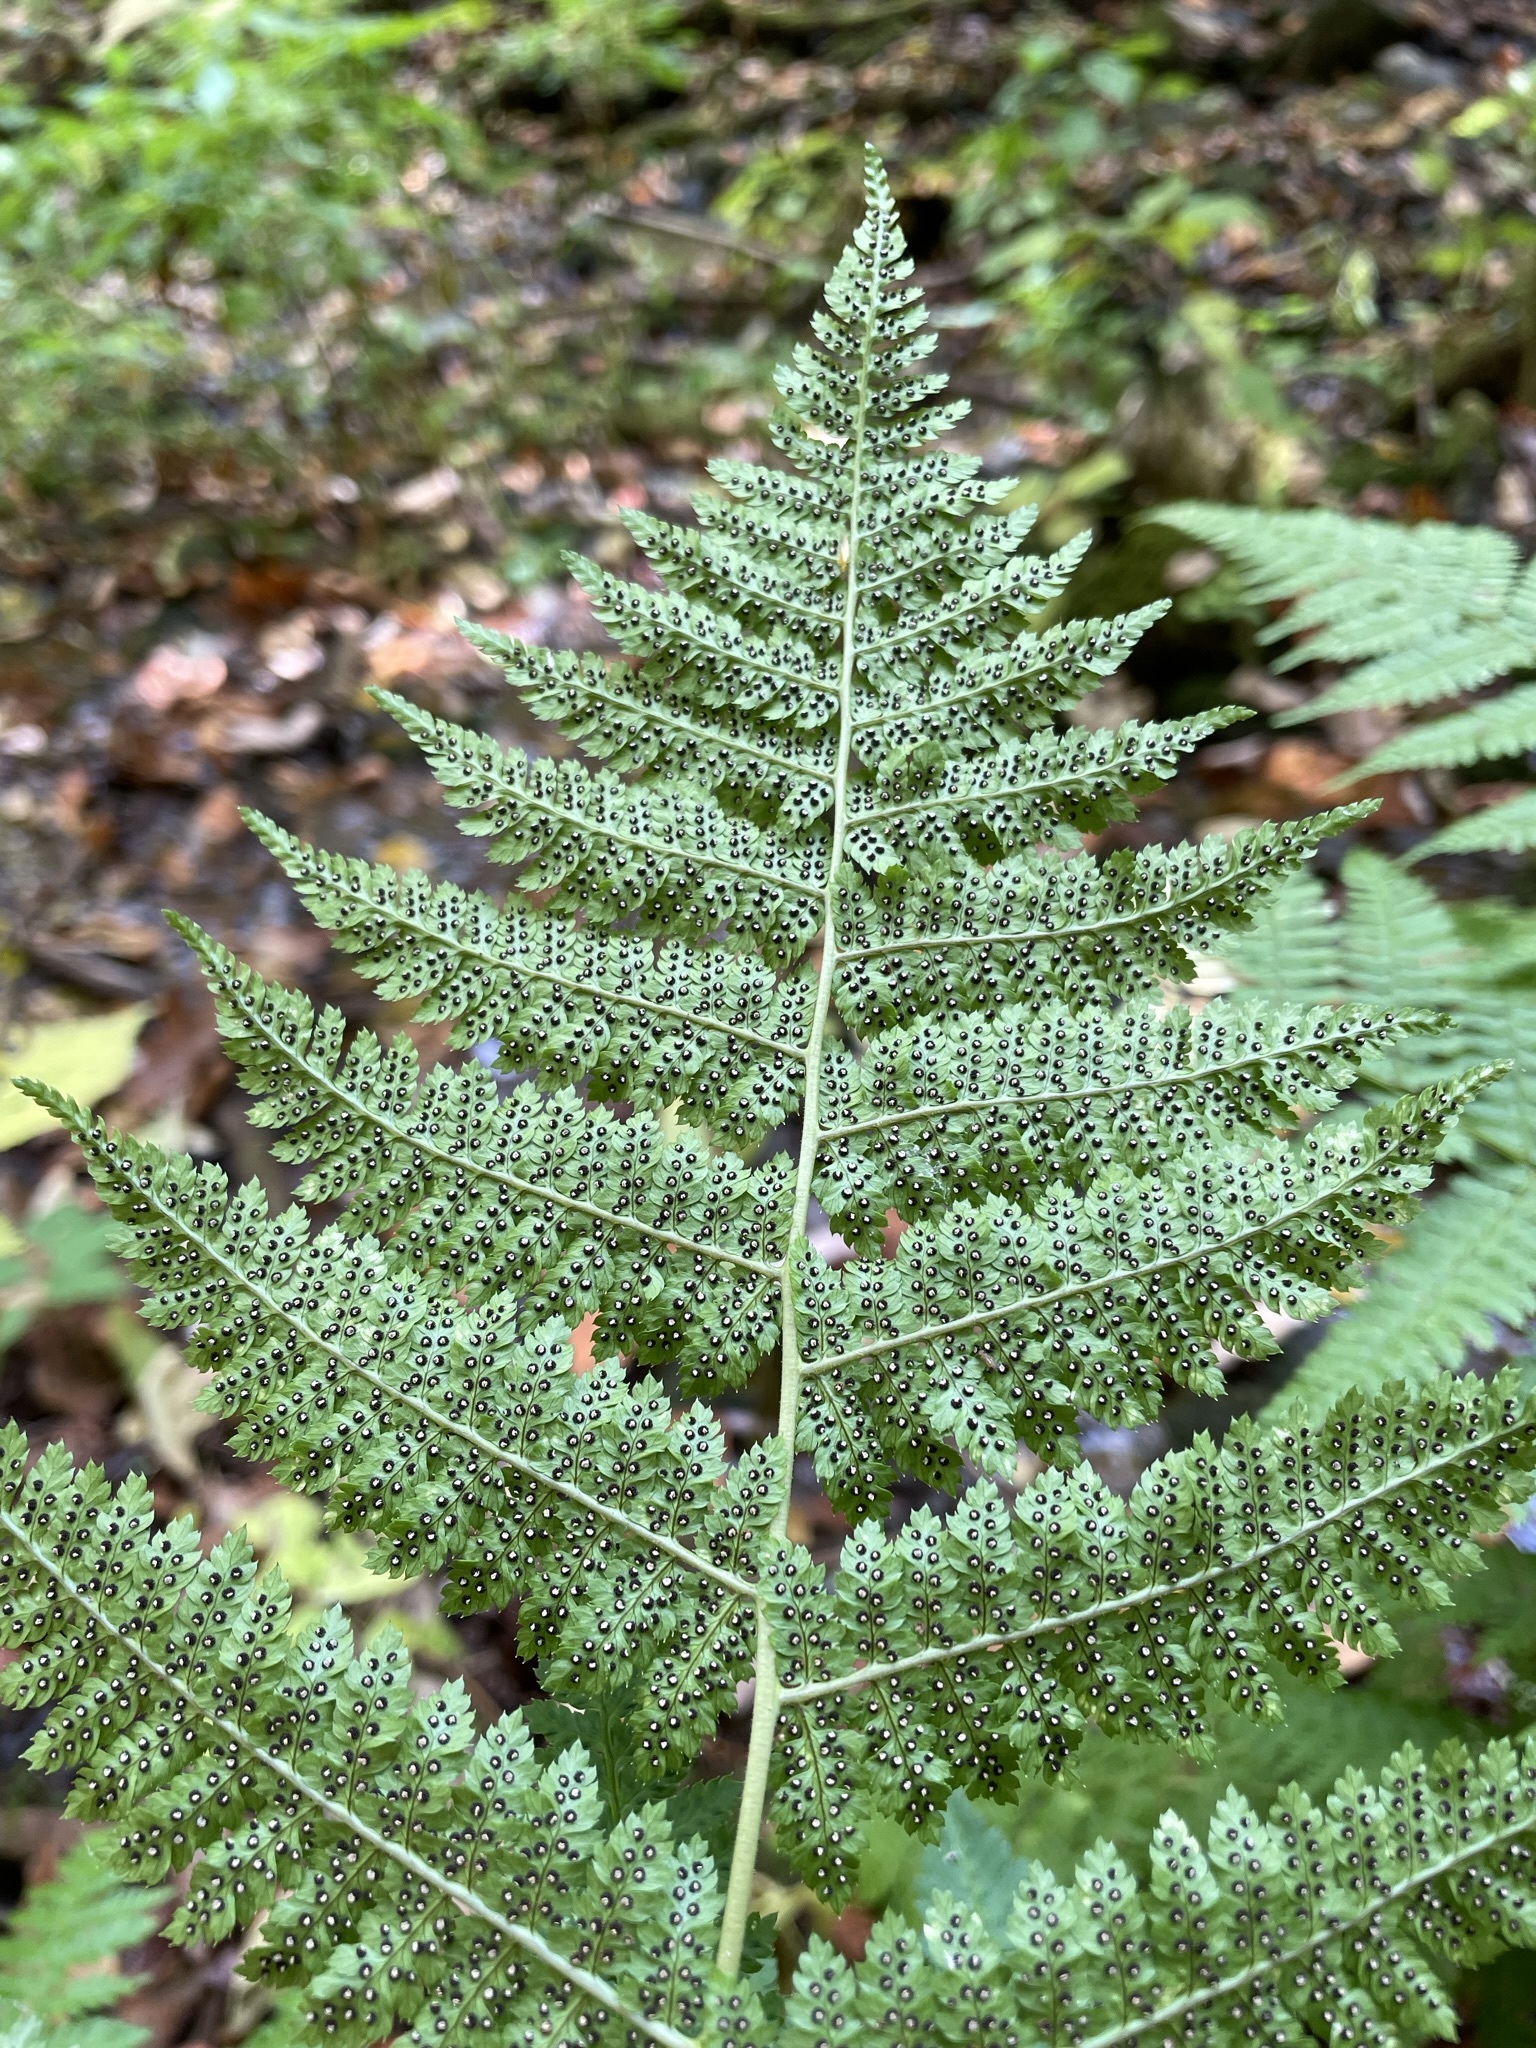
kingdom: Plantae
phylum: Tracheophyta
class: Polypodiopsida
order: Polypodiales
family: Dryopteridaceae
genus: Dryopteris
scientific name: Dryopteris intermedia
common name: Evergreen wood fern
